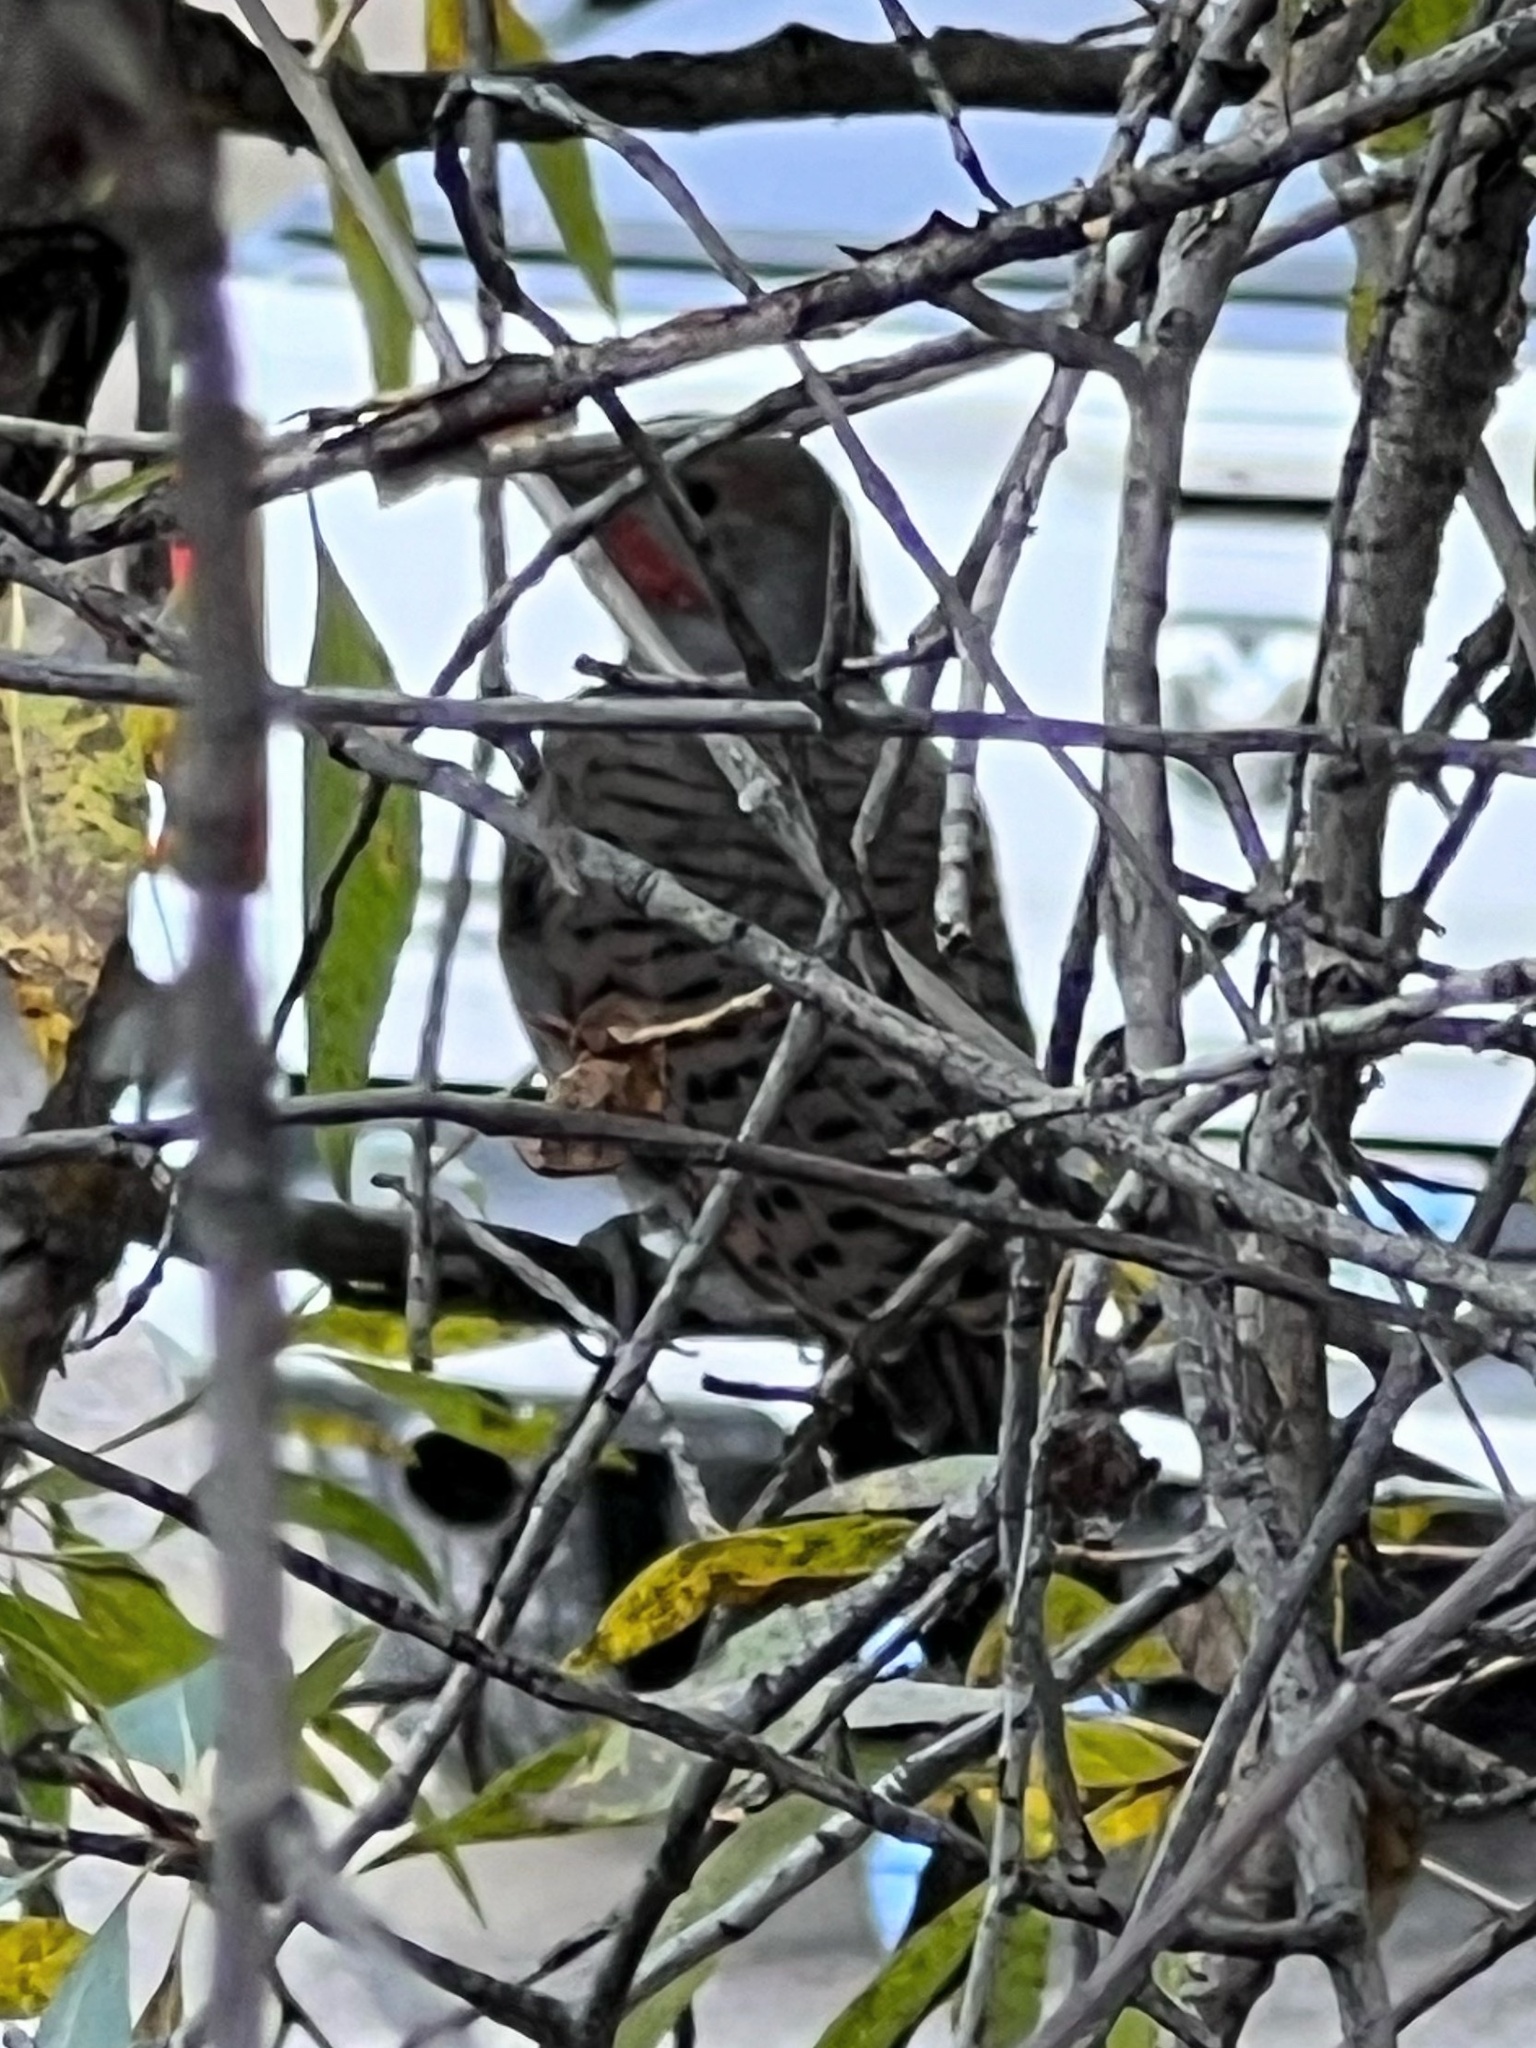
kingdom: Animalia
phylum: Chordata
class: Aves
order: Piciformes
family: Picidae
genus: Colaptes
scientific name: Colaptes auratus
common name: Northern flicker
